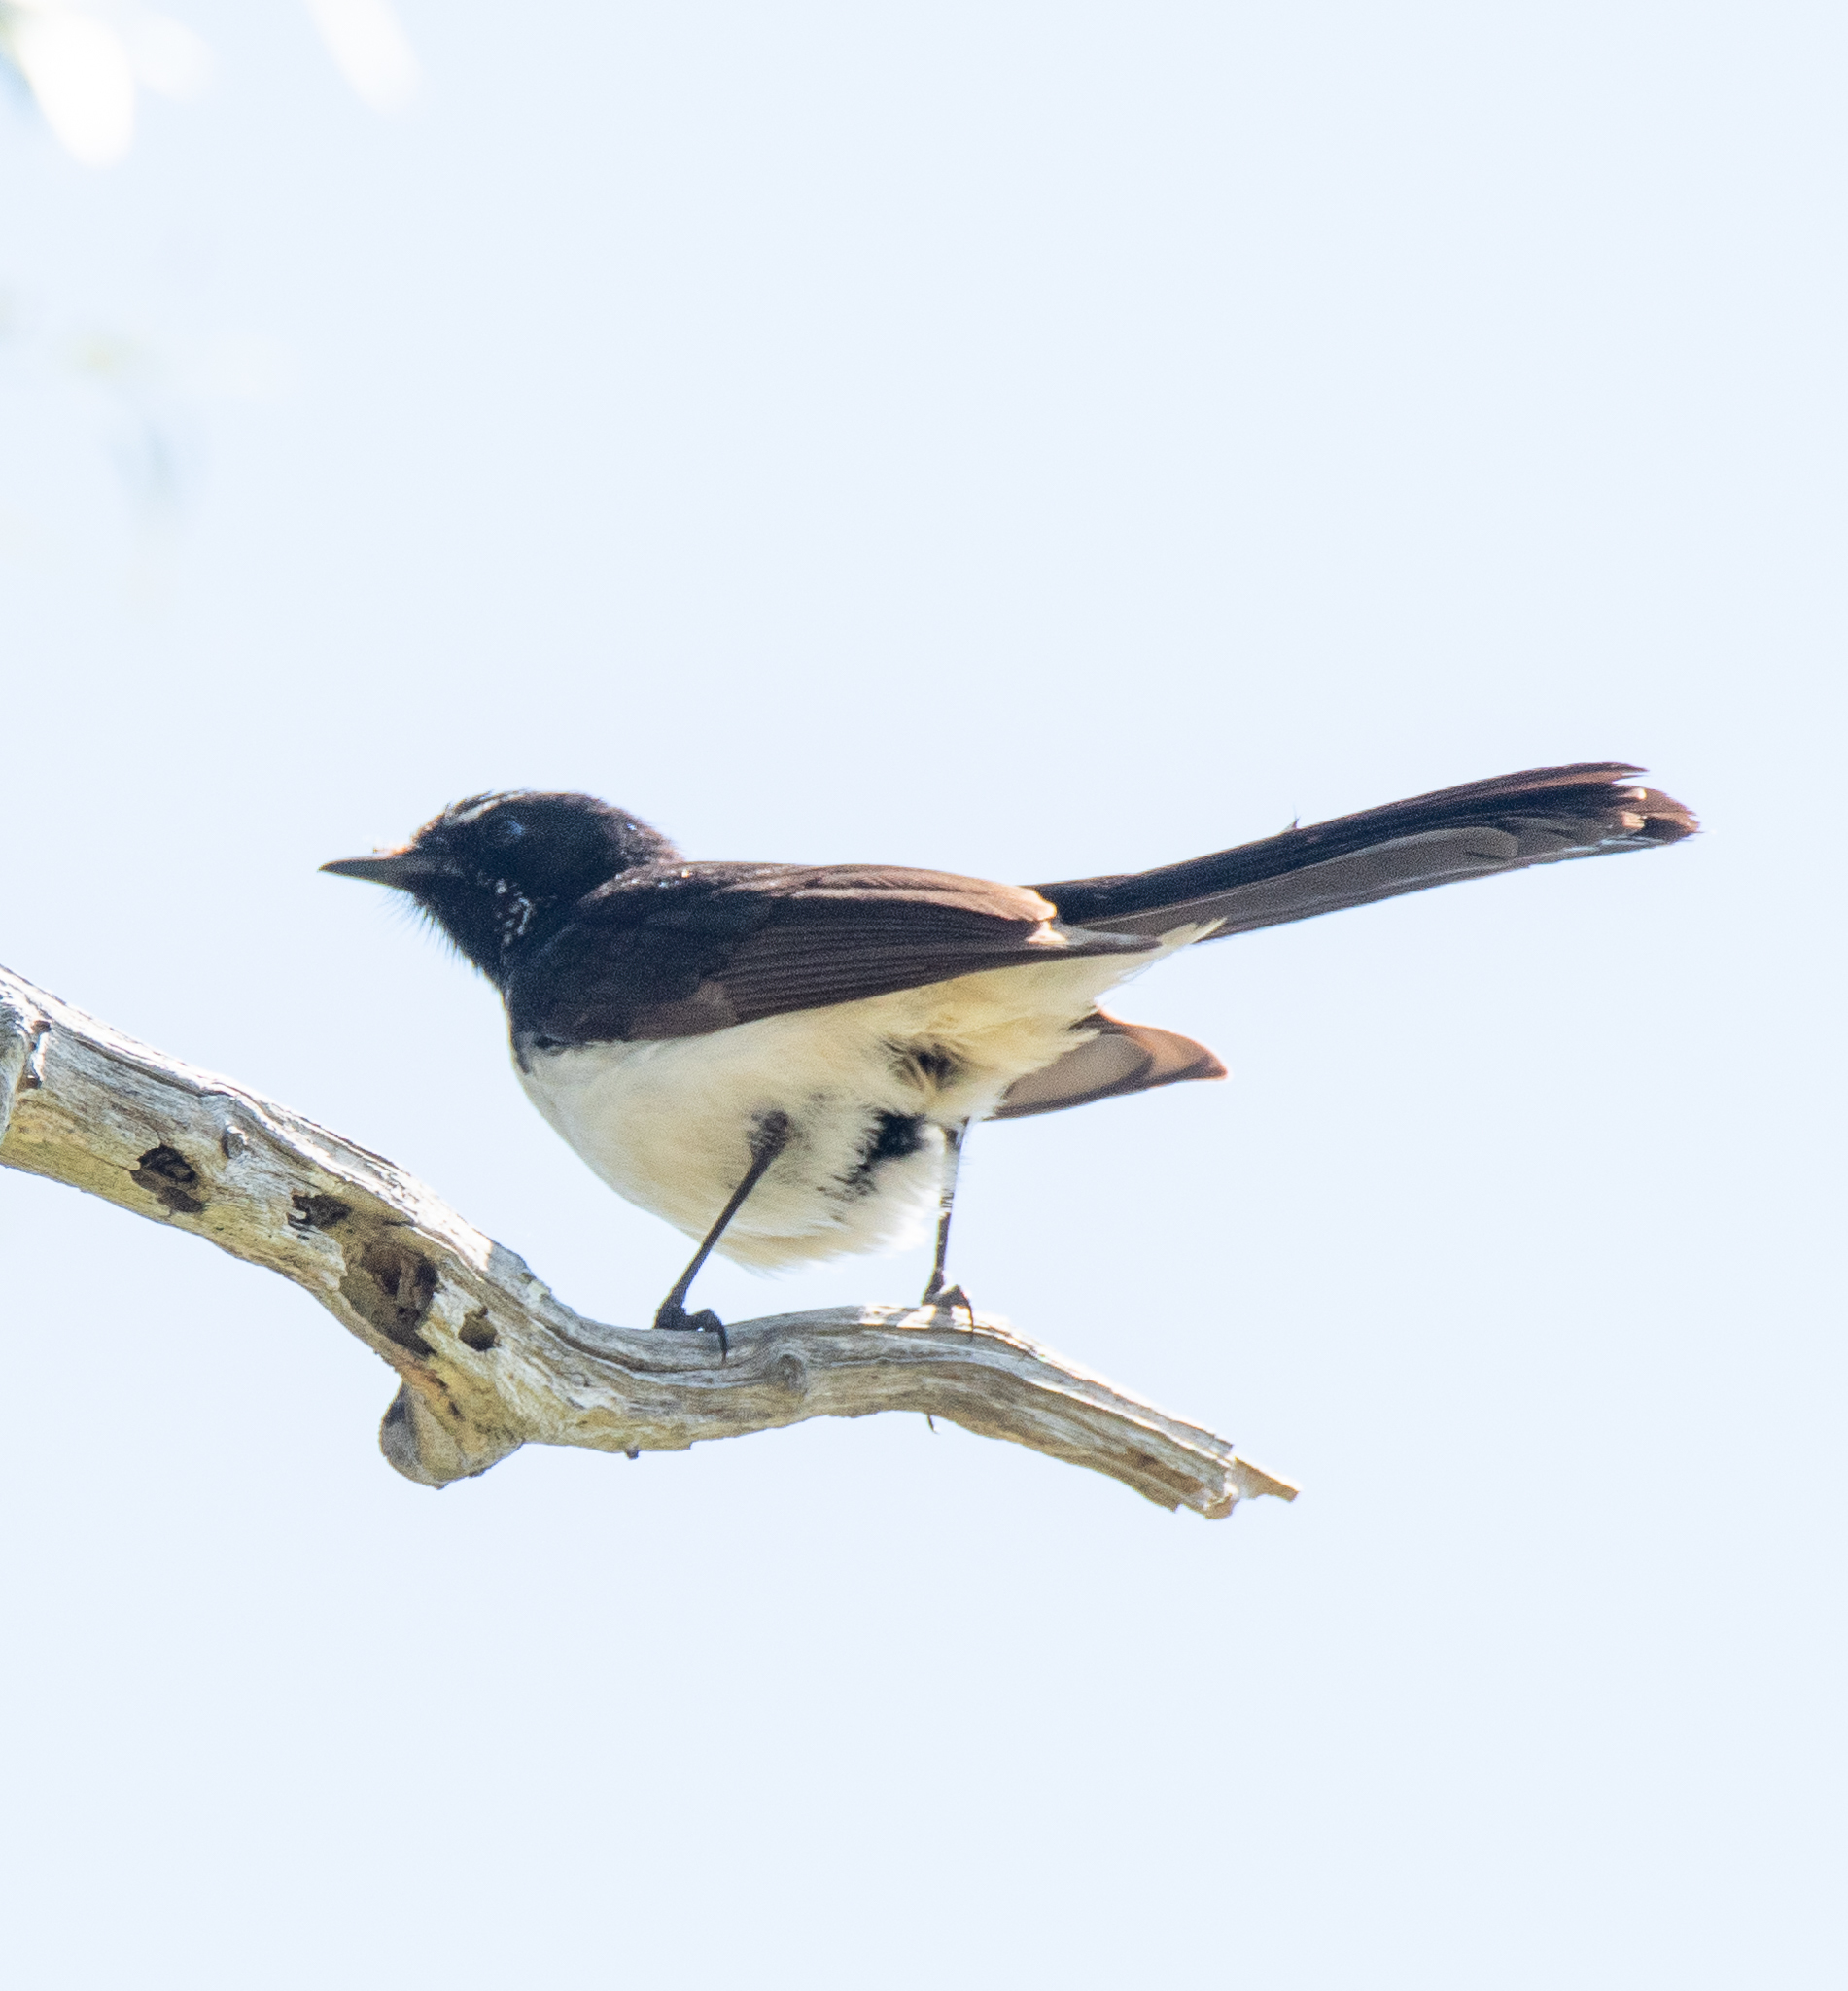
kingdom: Animalia
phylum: Chordata
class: Aves
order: Passeriformes
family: Rhipiduridae
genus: Rhipidura
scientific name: Rhipidura leucophrys
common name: Willie wagtail
